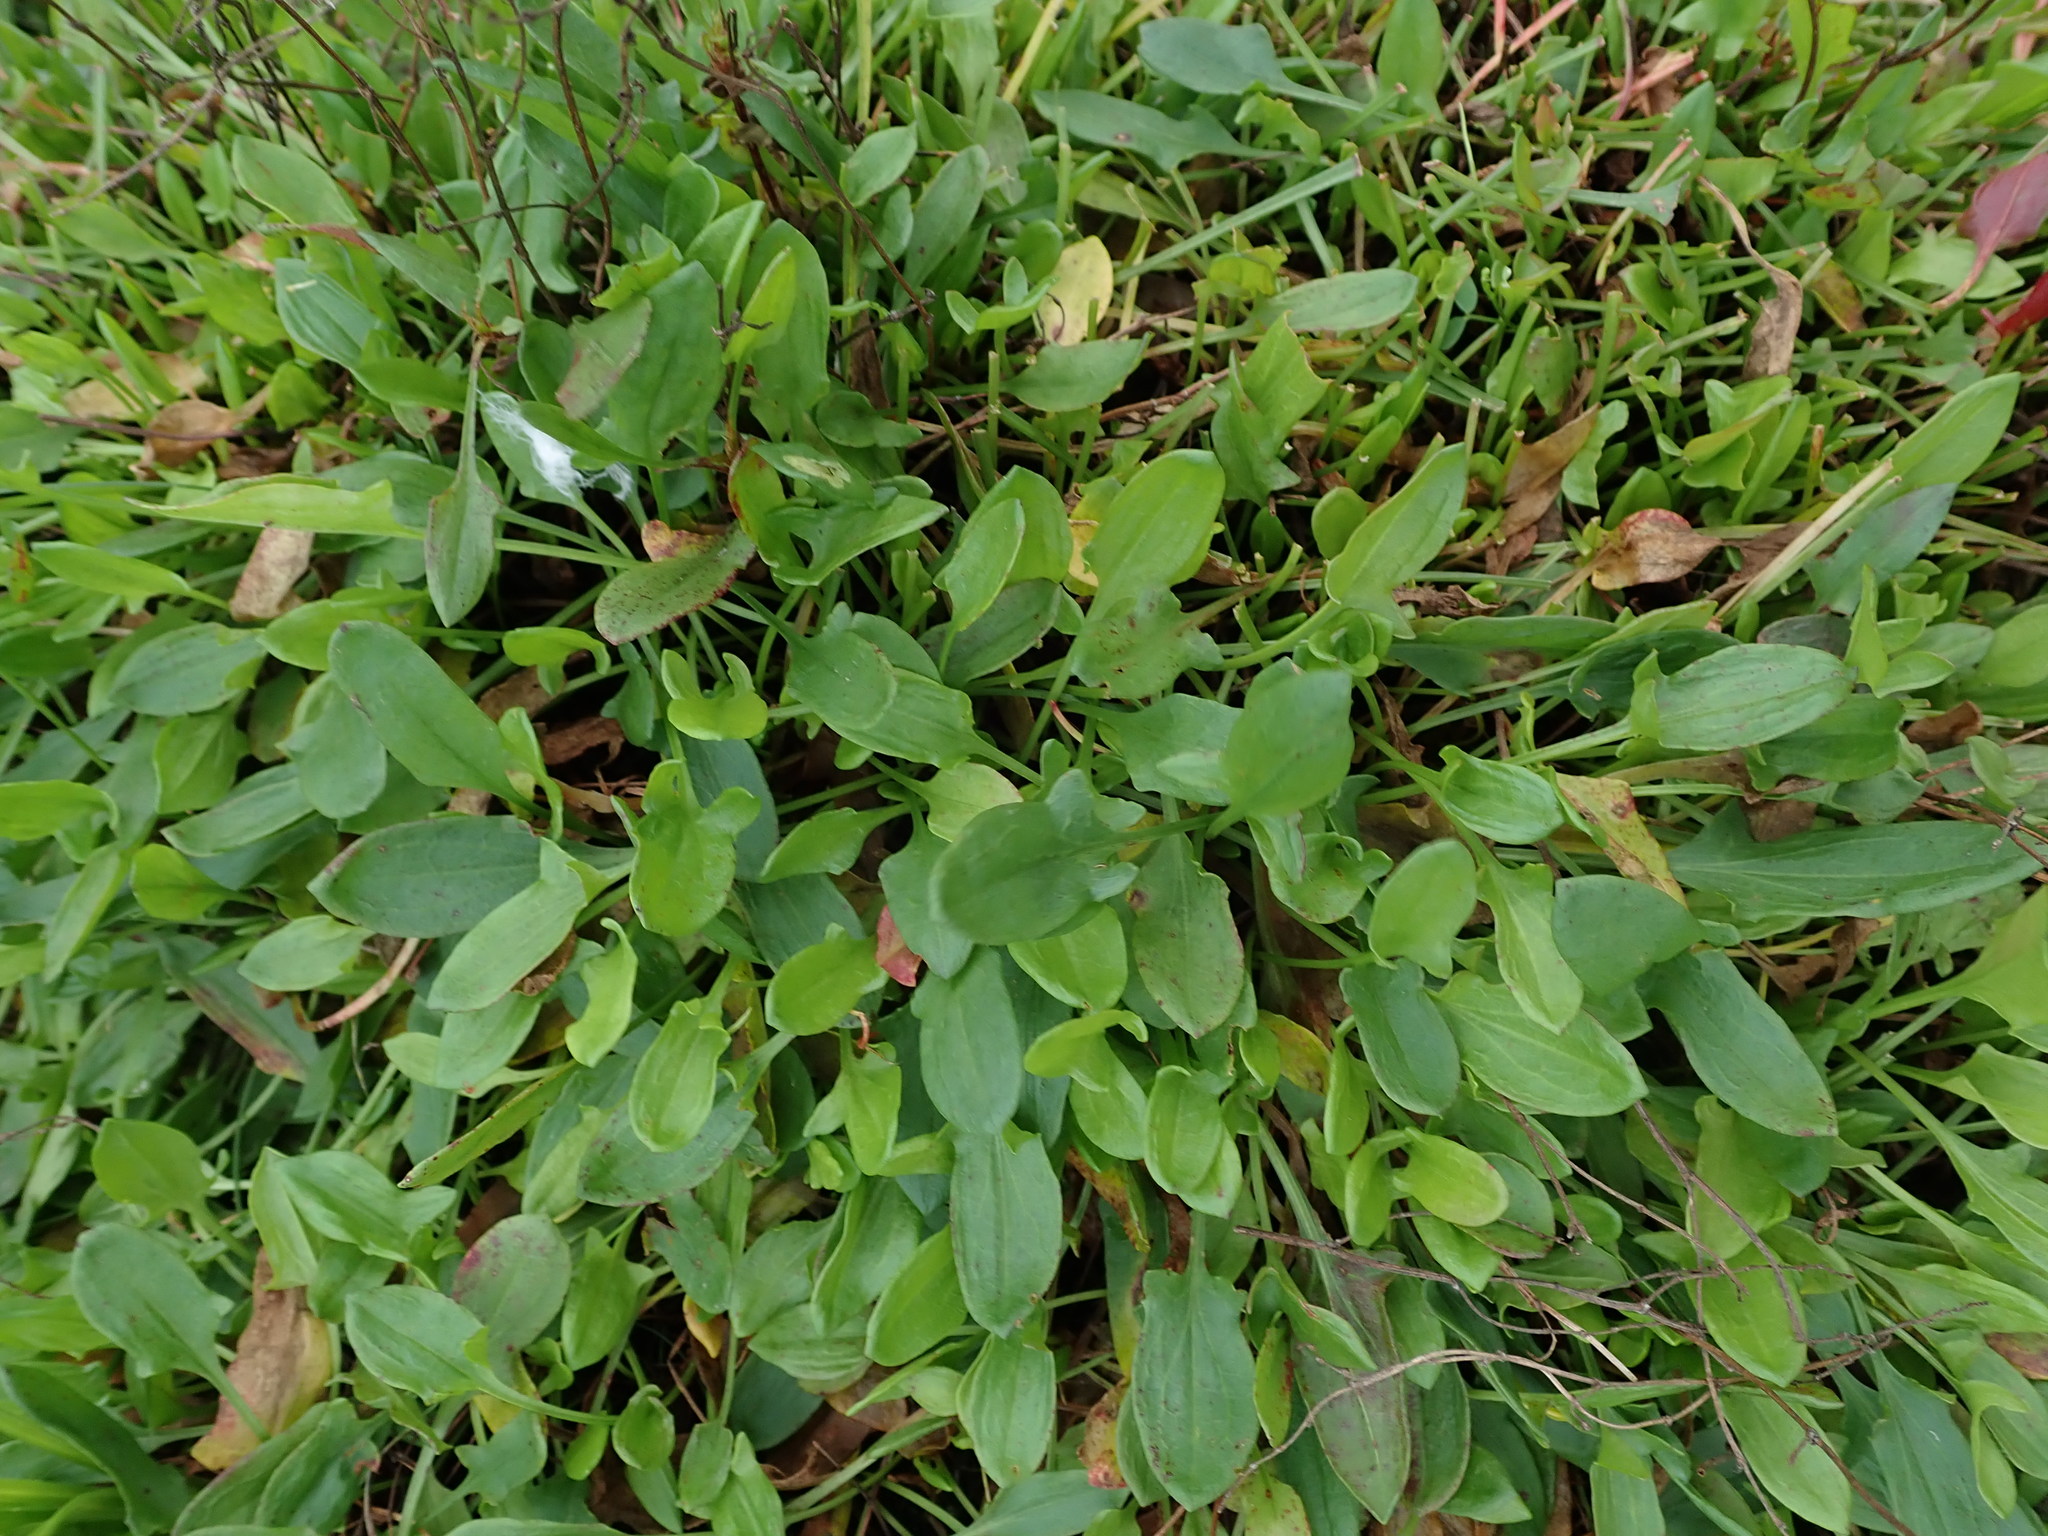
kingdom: Plantae
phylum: Tracheophyta
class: Magnoliopsida
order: Caryophyllales
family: Polygonaceae
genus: Rumex
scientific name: Rumex acetosella
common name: Common sheep sorrel
